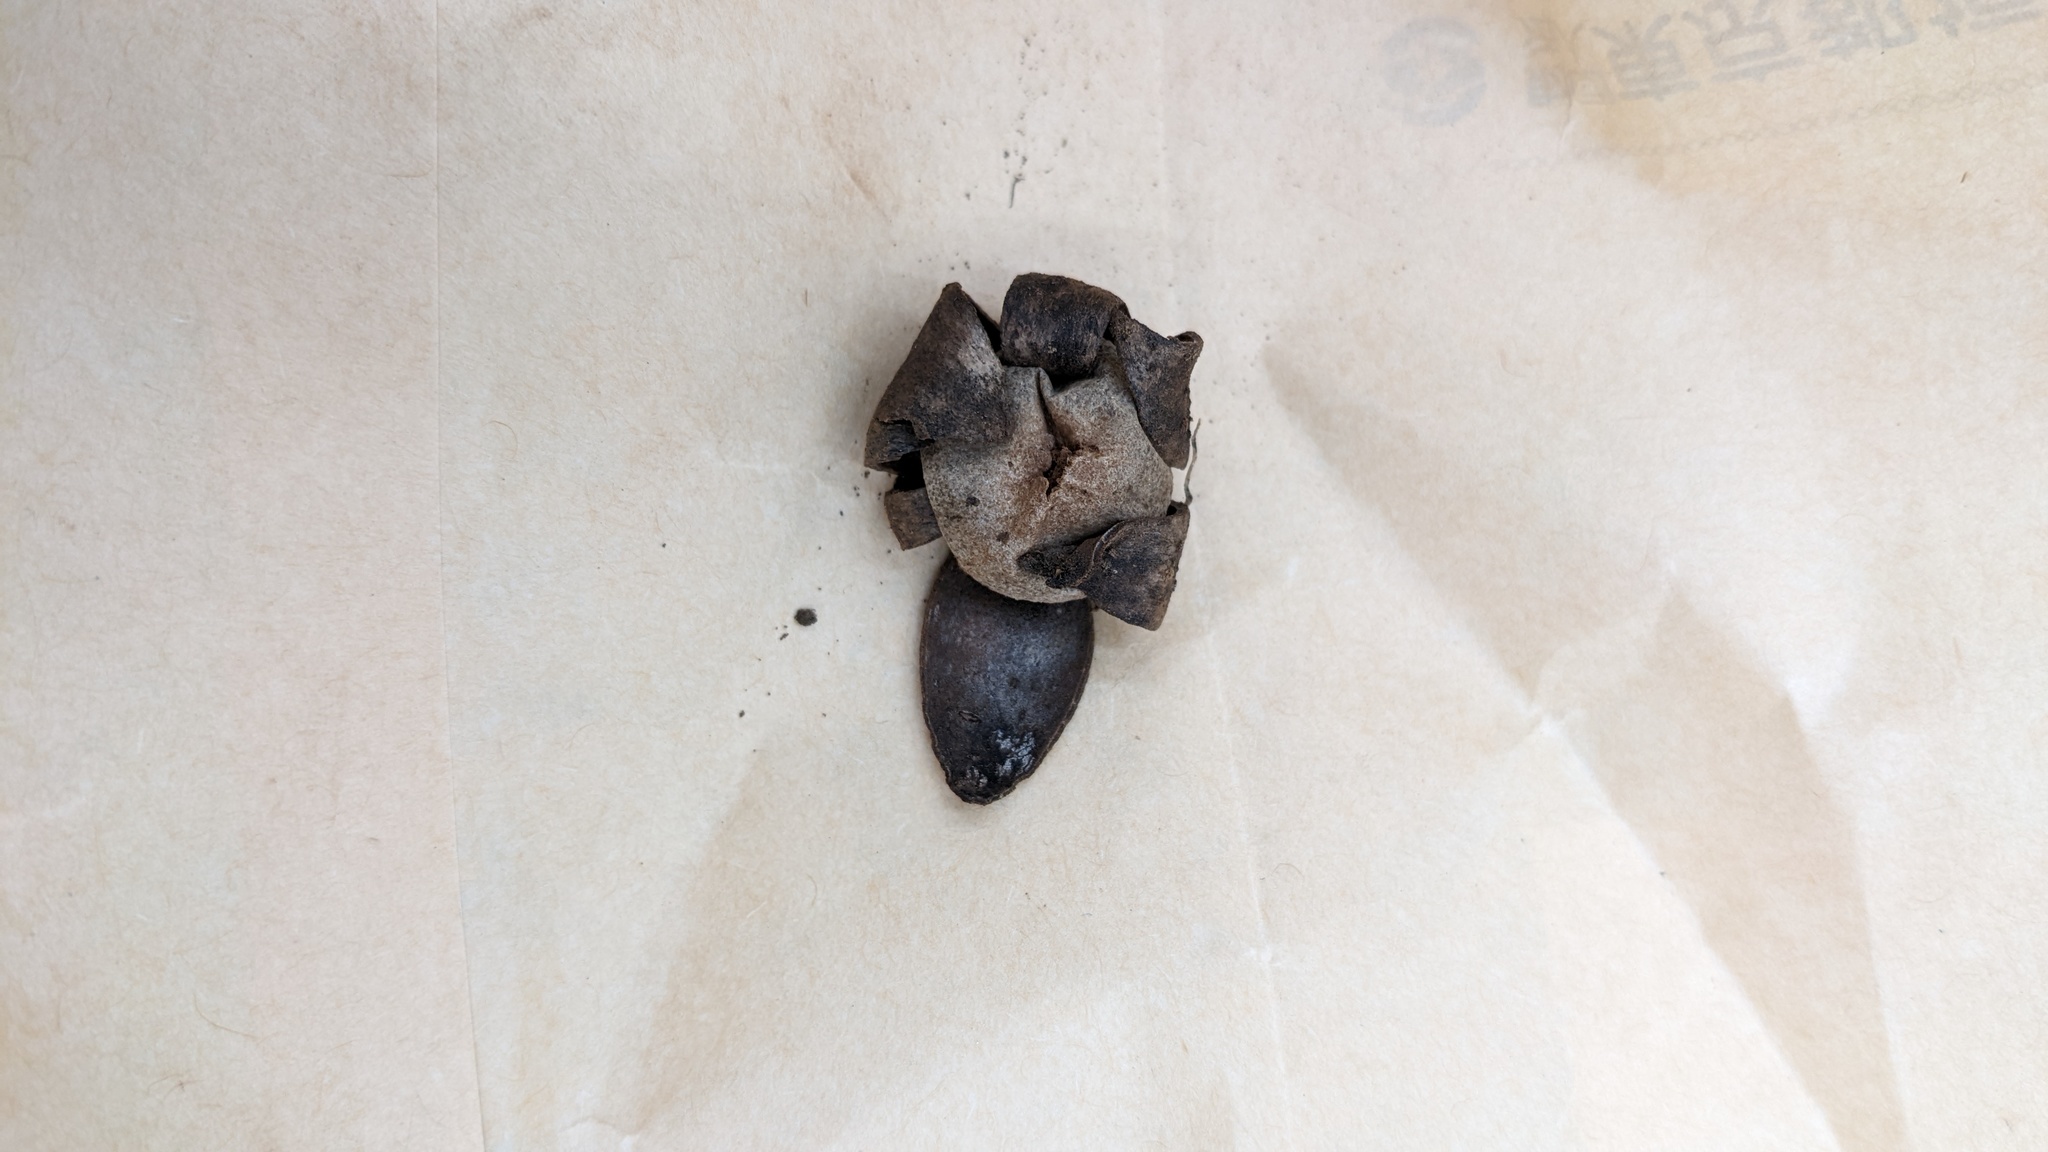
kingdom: Fungi
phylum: Basidiomycota
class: Agaricomycetes
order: Boletales
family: Diplocystidiaceae
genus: Astraeus
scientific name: Astraeus hygrometricus
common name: Barometer earthstar
